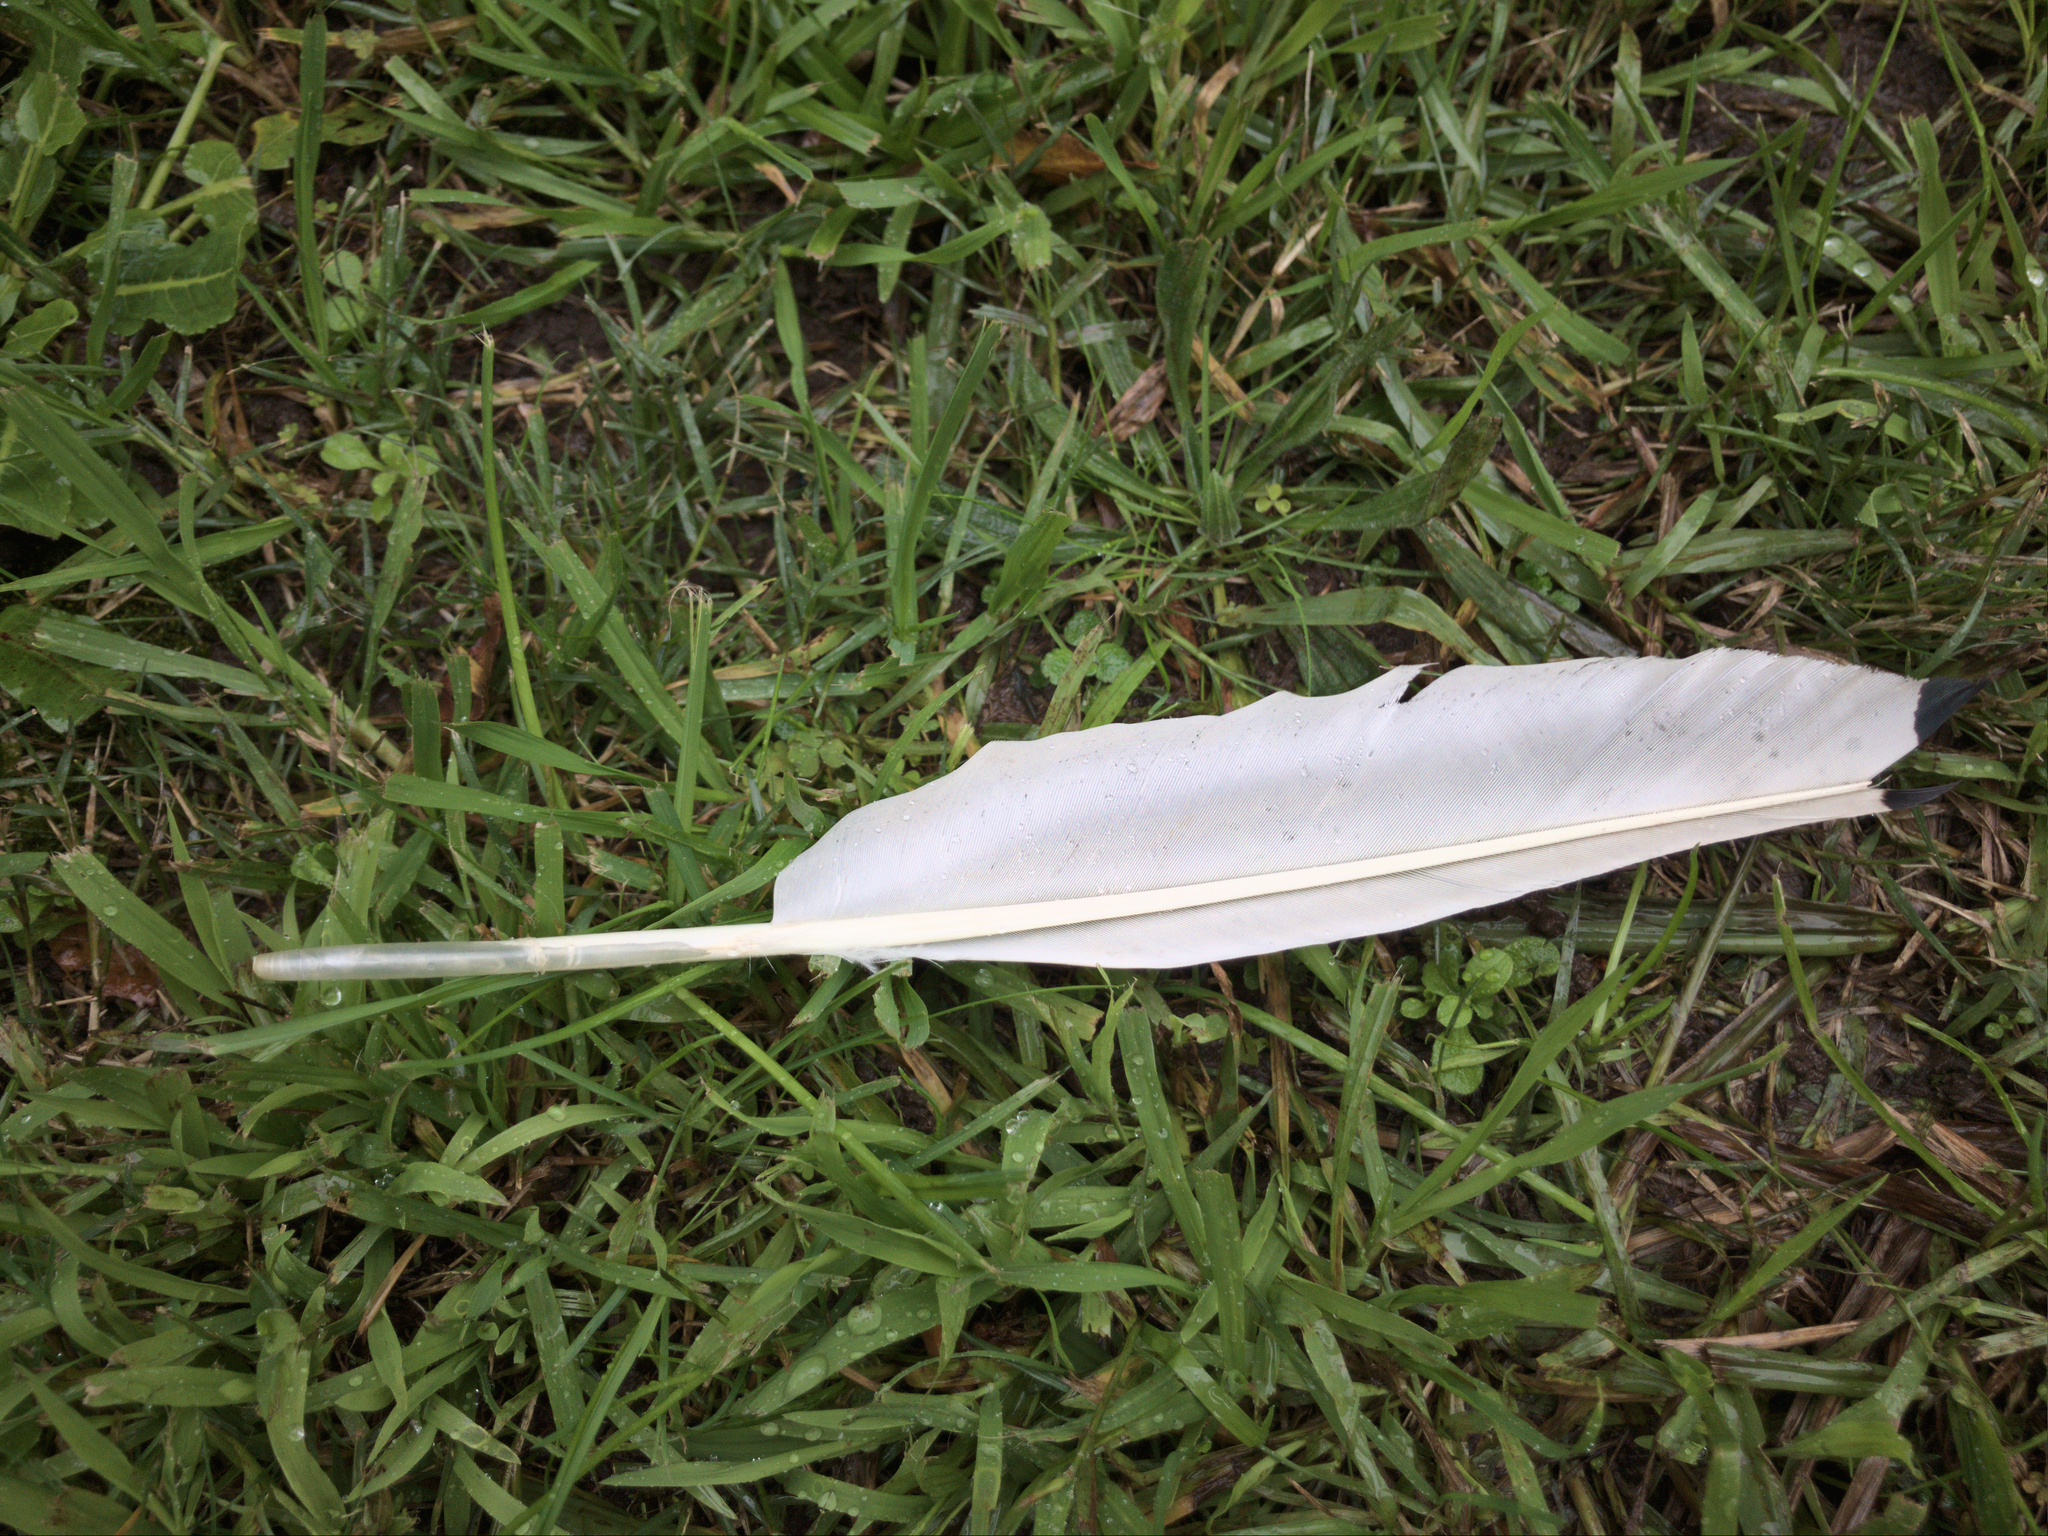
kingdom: Animalia
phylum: Chordata
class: Aves
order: Pelecaniformes
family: Threskiornithidae
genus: Threskiornis
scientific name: Threskiornis molucca
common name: Australian white ibis
